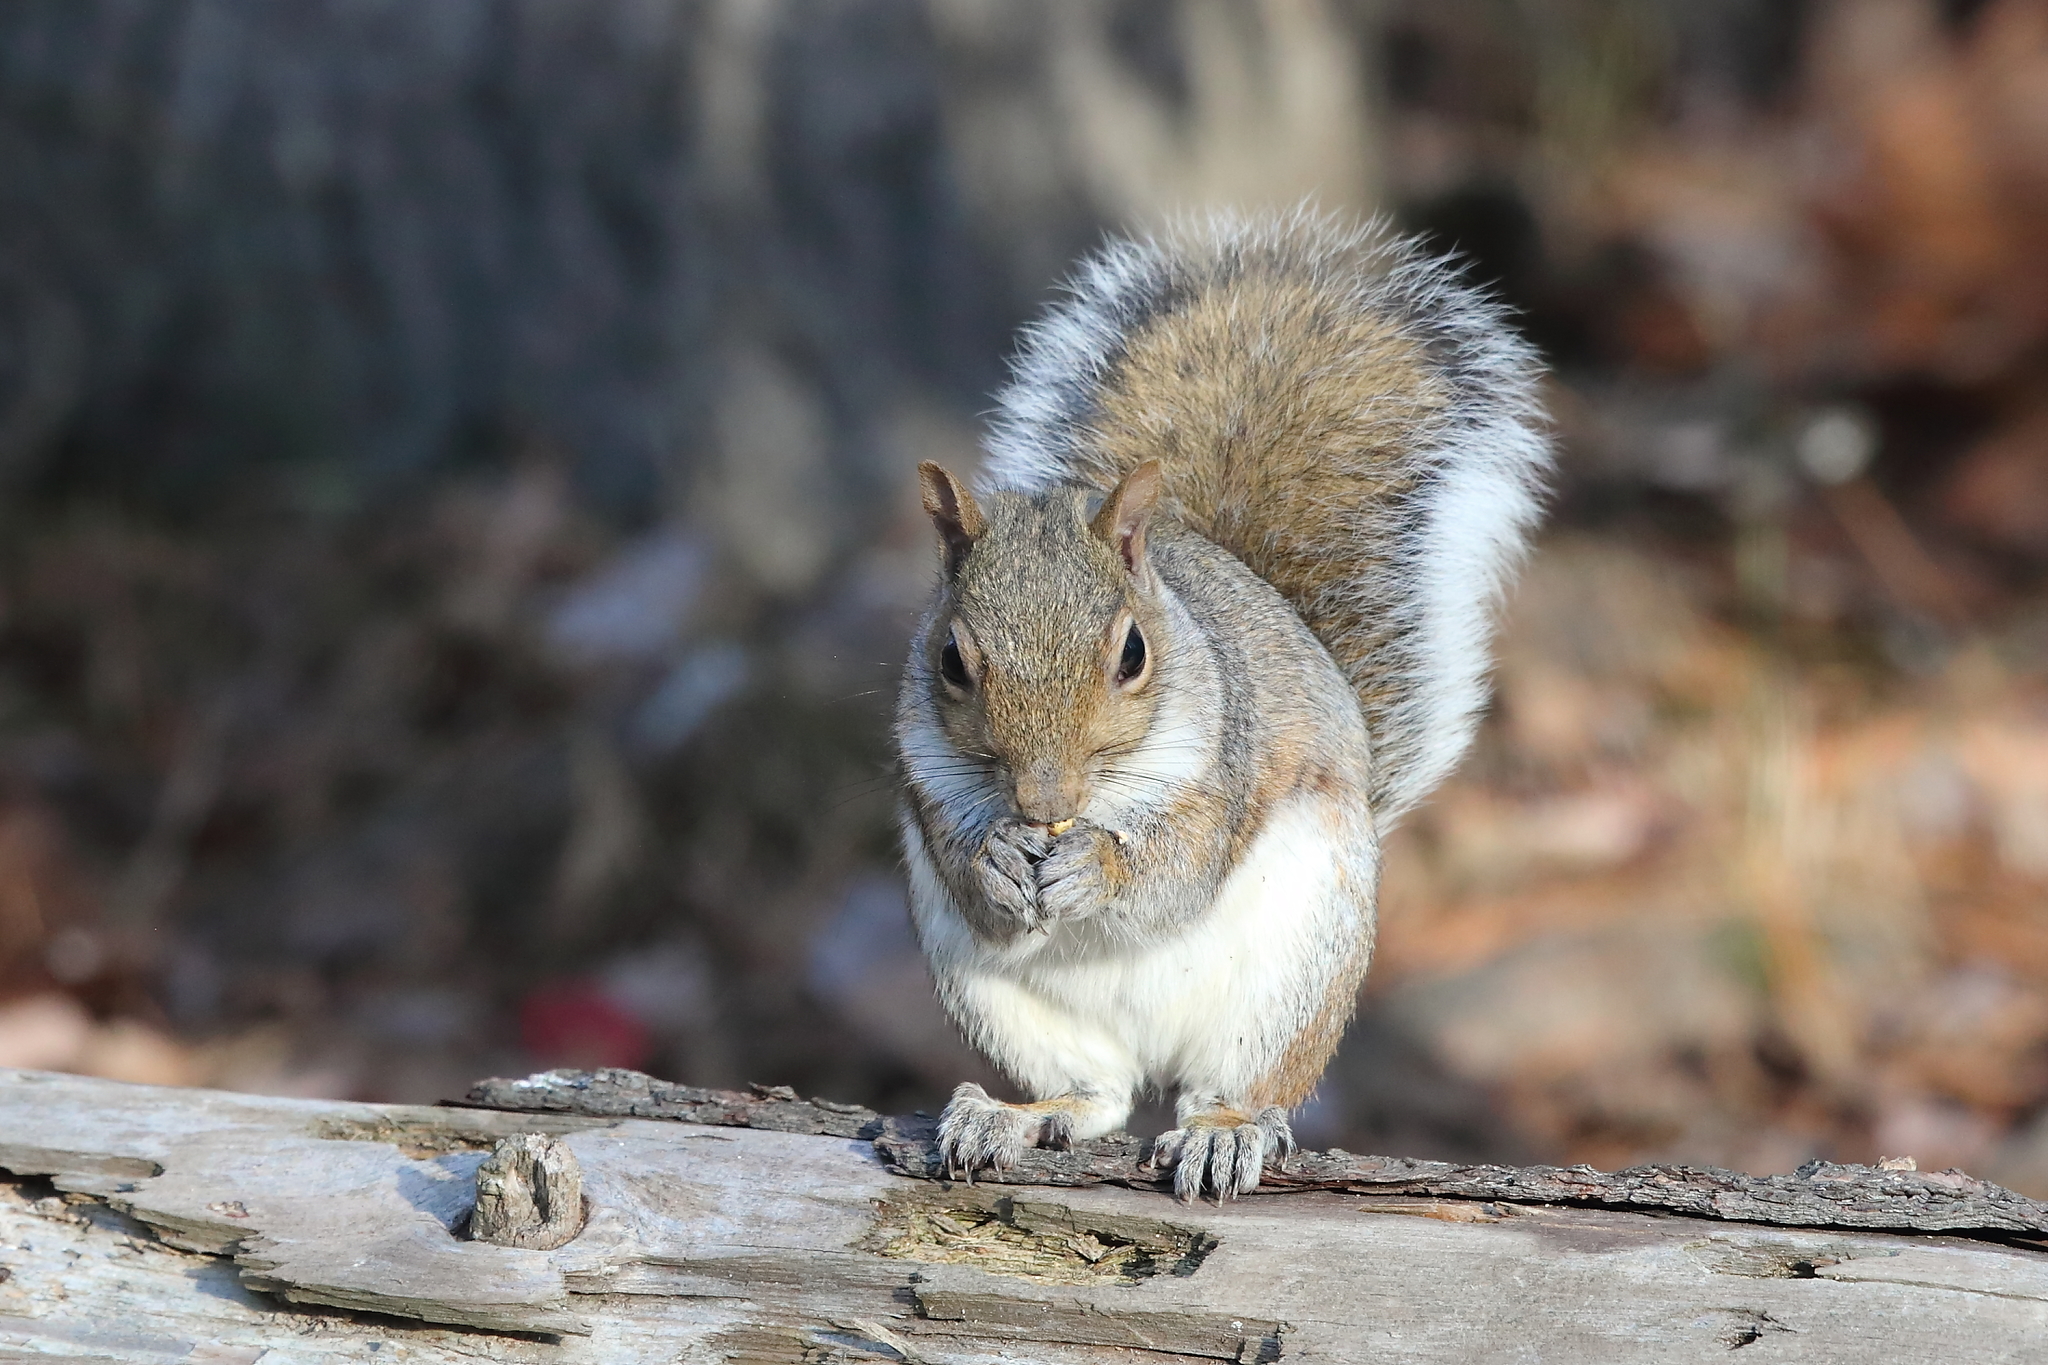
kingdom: Animalia
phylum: Chordata
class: Mammalia
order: Rodentia
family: Sciuridae
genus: Sciurus
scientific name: Sciurus carolinensis
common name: Eastern gray squirrel
